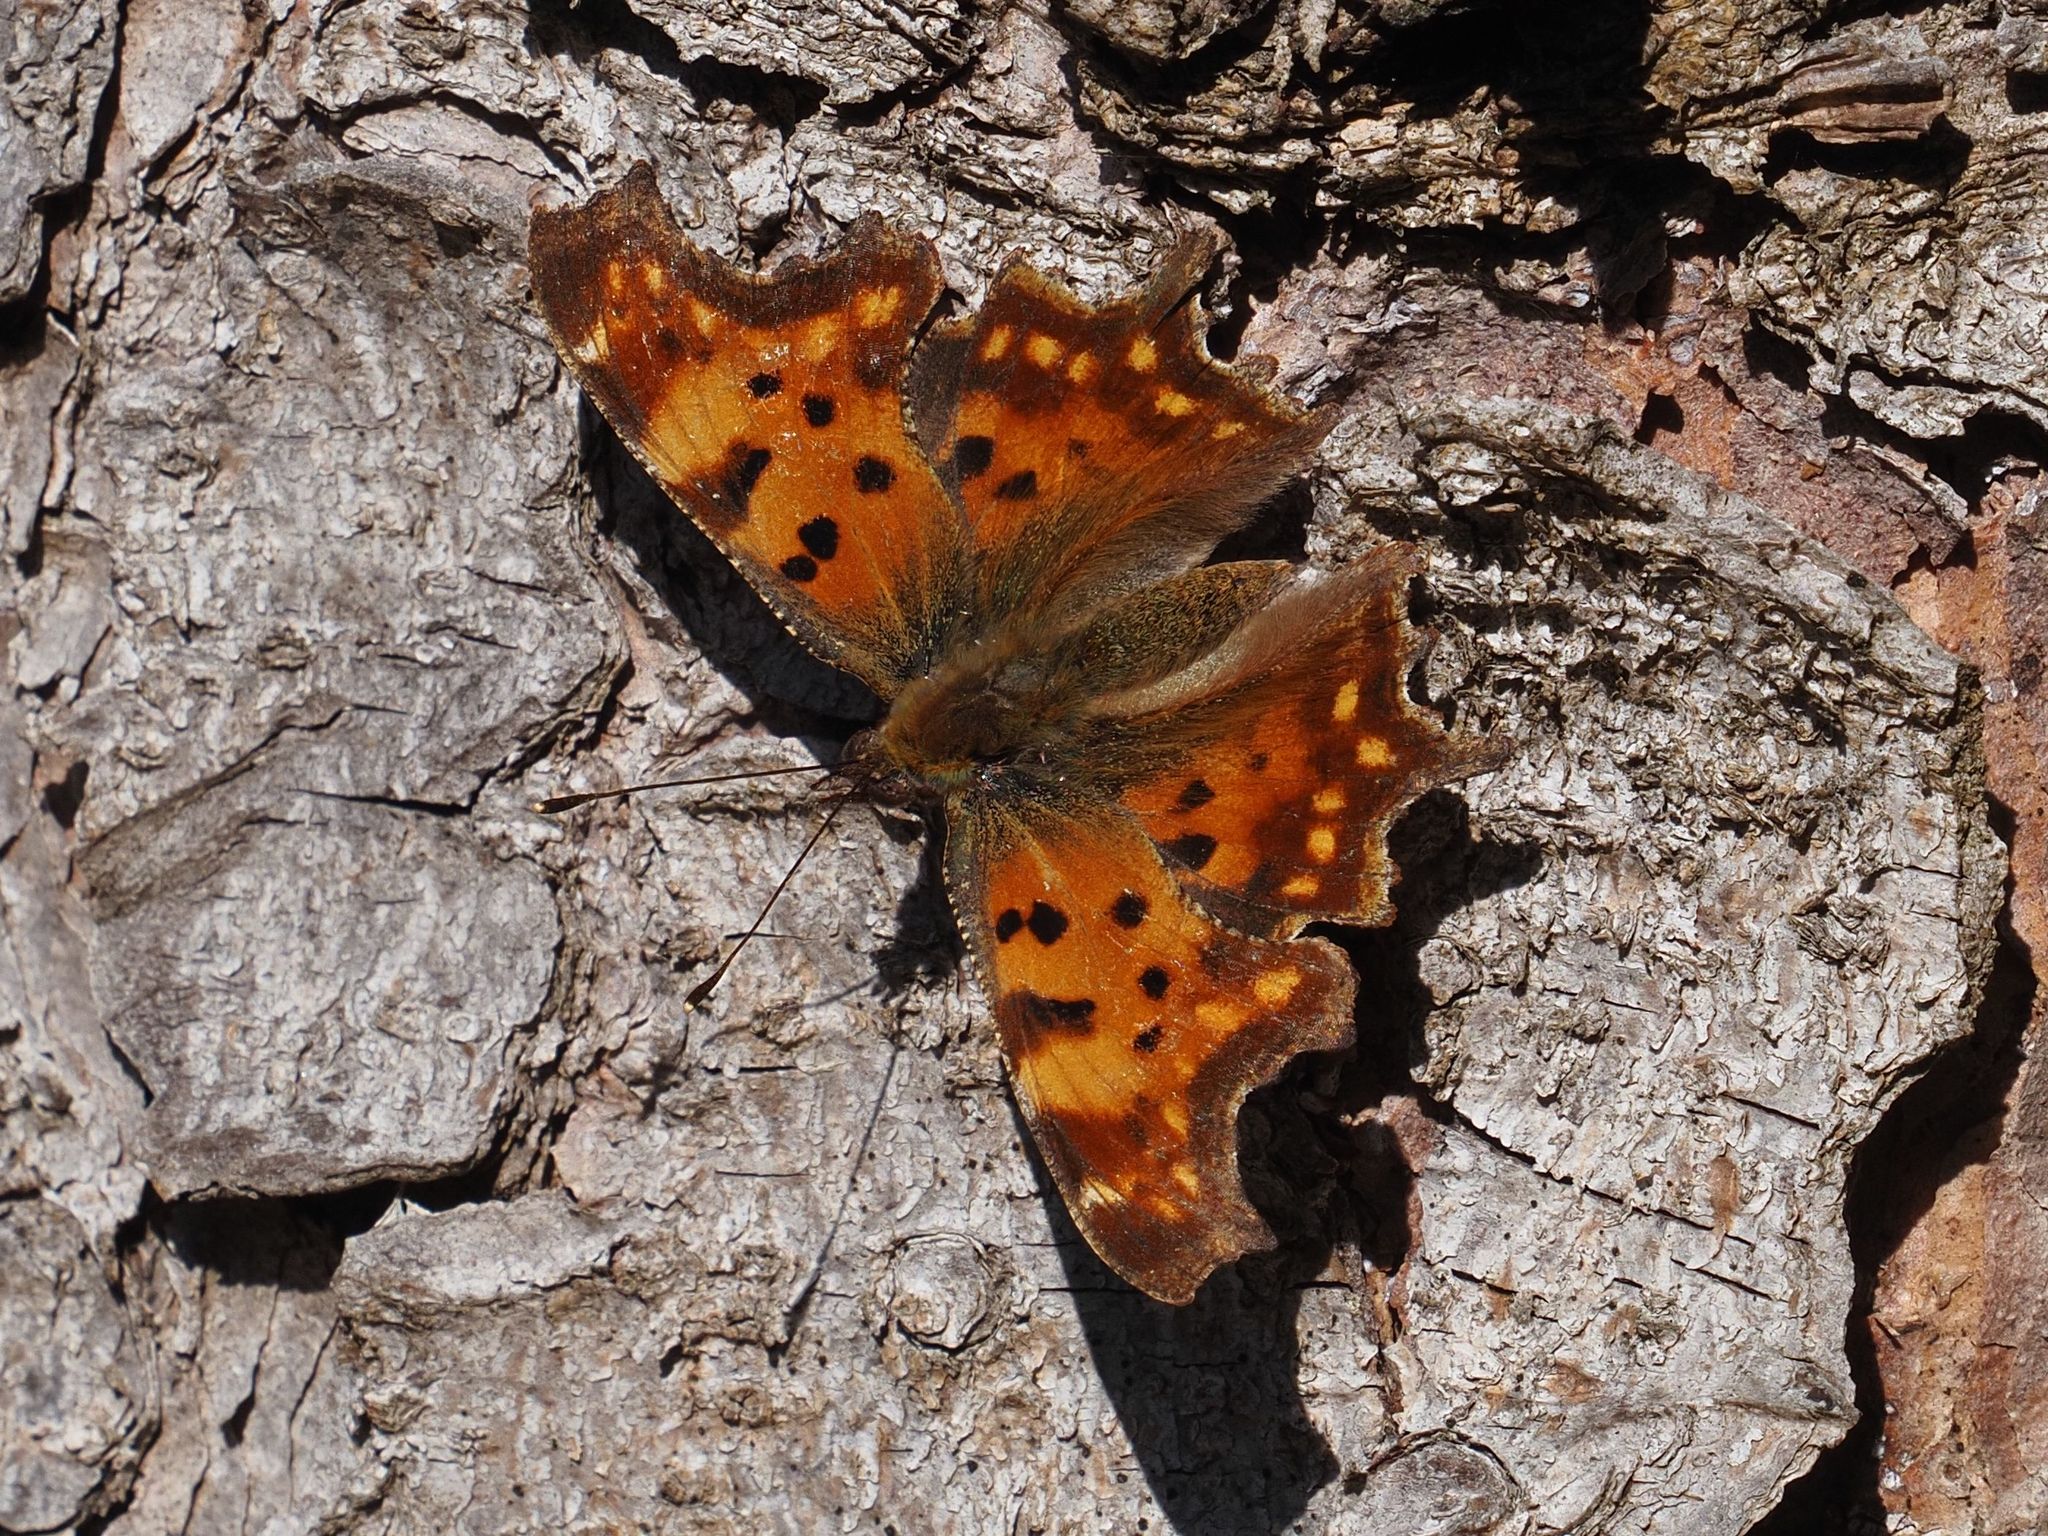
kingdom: Animalia
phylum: Arthropoda
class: Insecta
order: Lepidoptera
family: Nymphalidae
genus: Polygonia
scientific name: Polygonia c-album
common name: Comma
